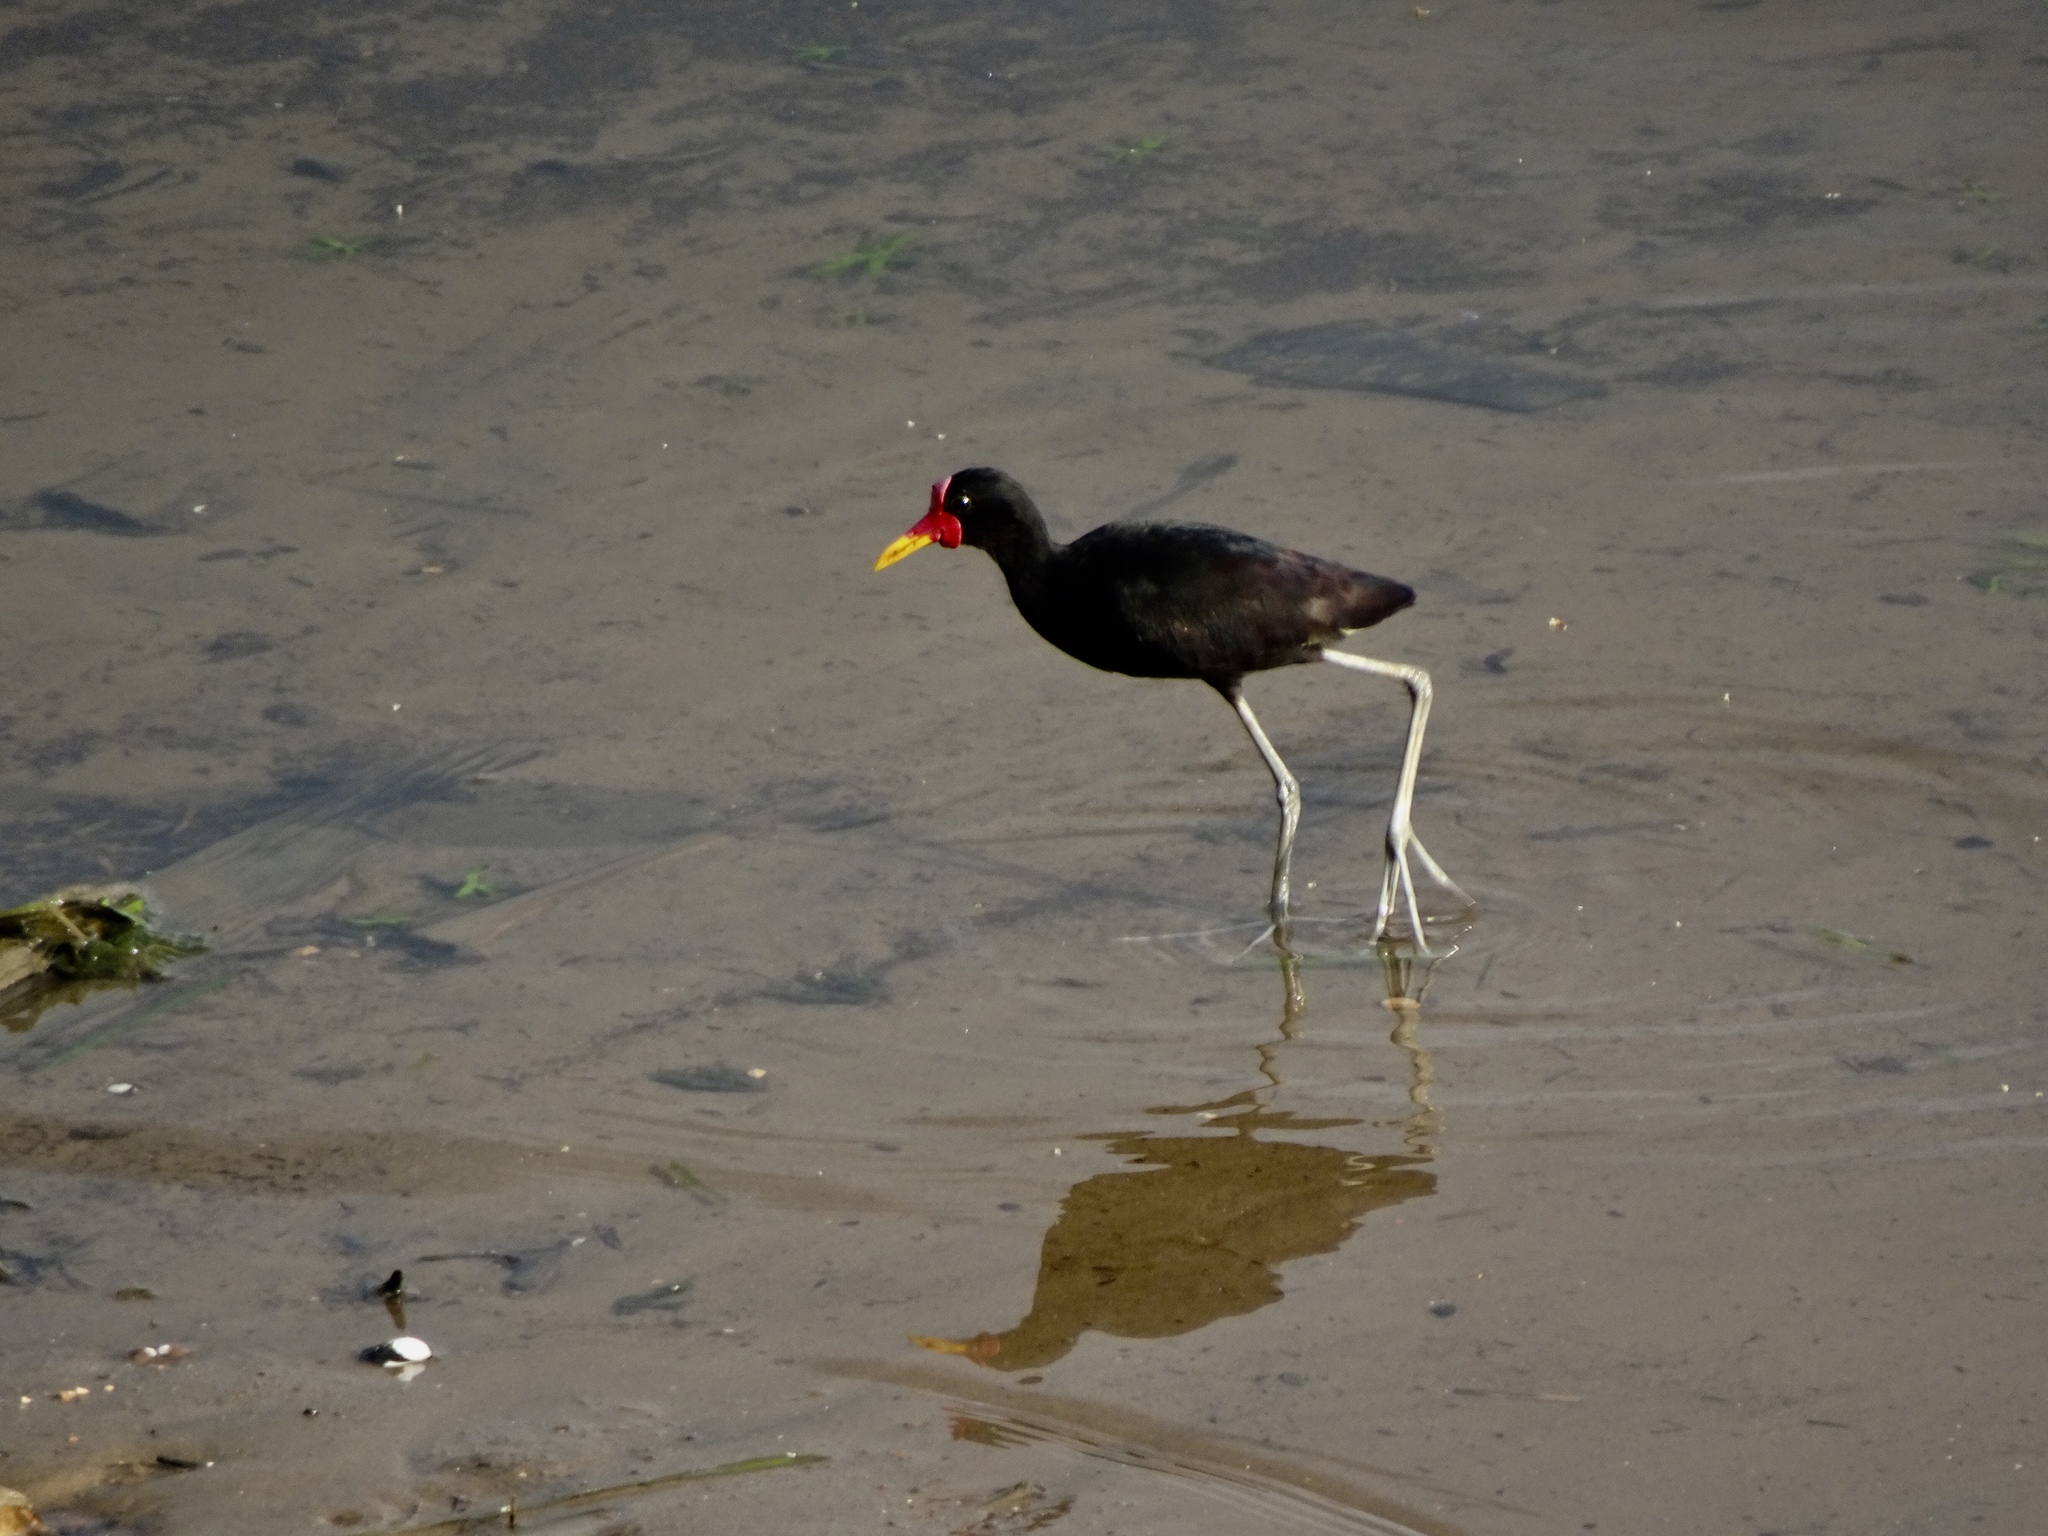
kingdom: Animalia
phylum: Chordata
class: Aves
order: Charadriiformes
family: Jacanidae
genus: Jacana
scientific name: Jacana jacana
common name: Wattled jacana
